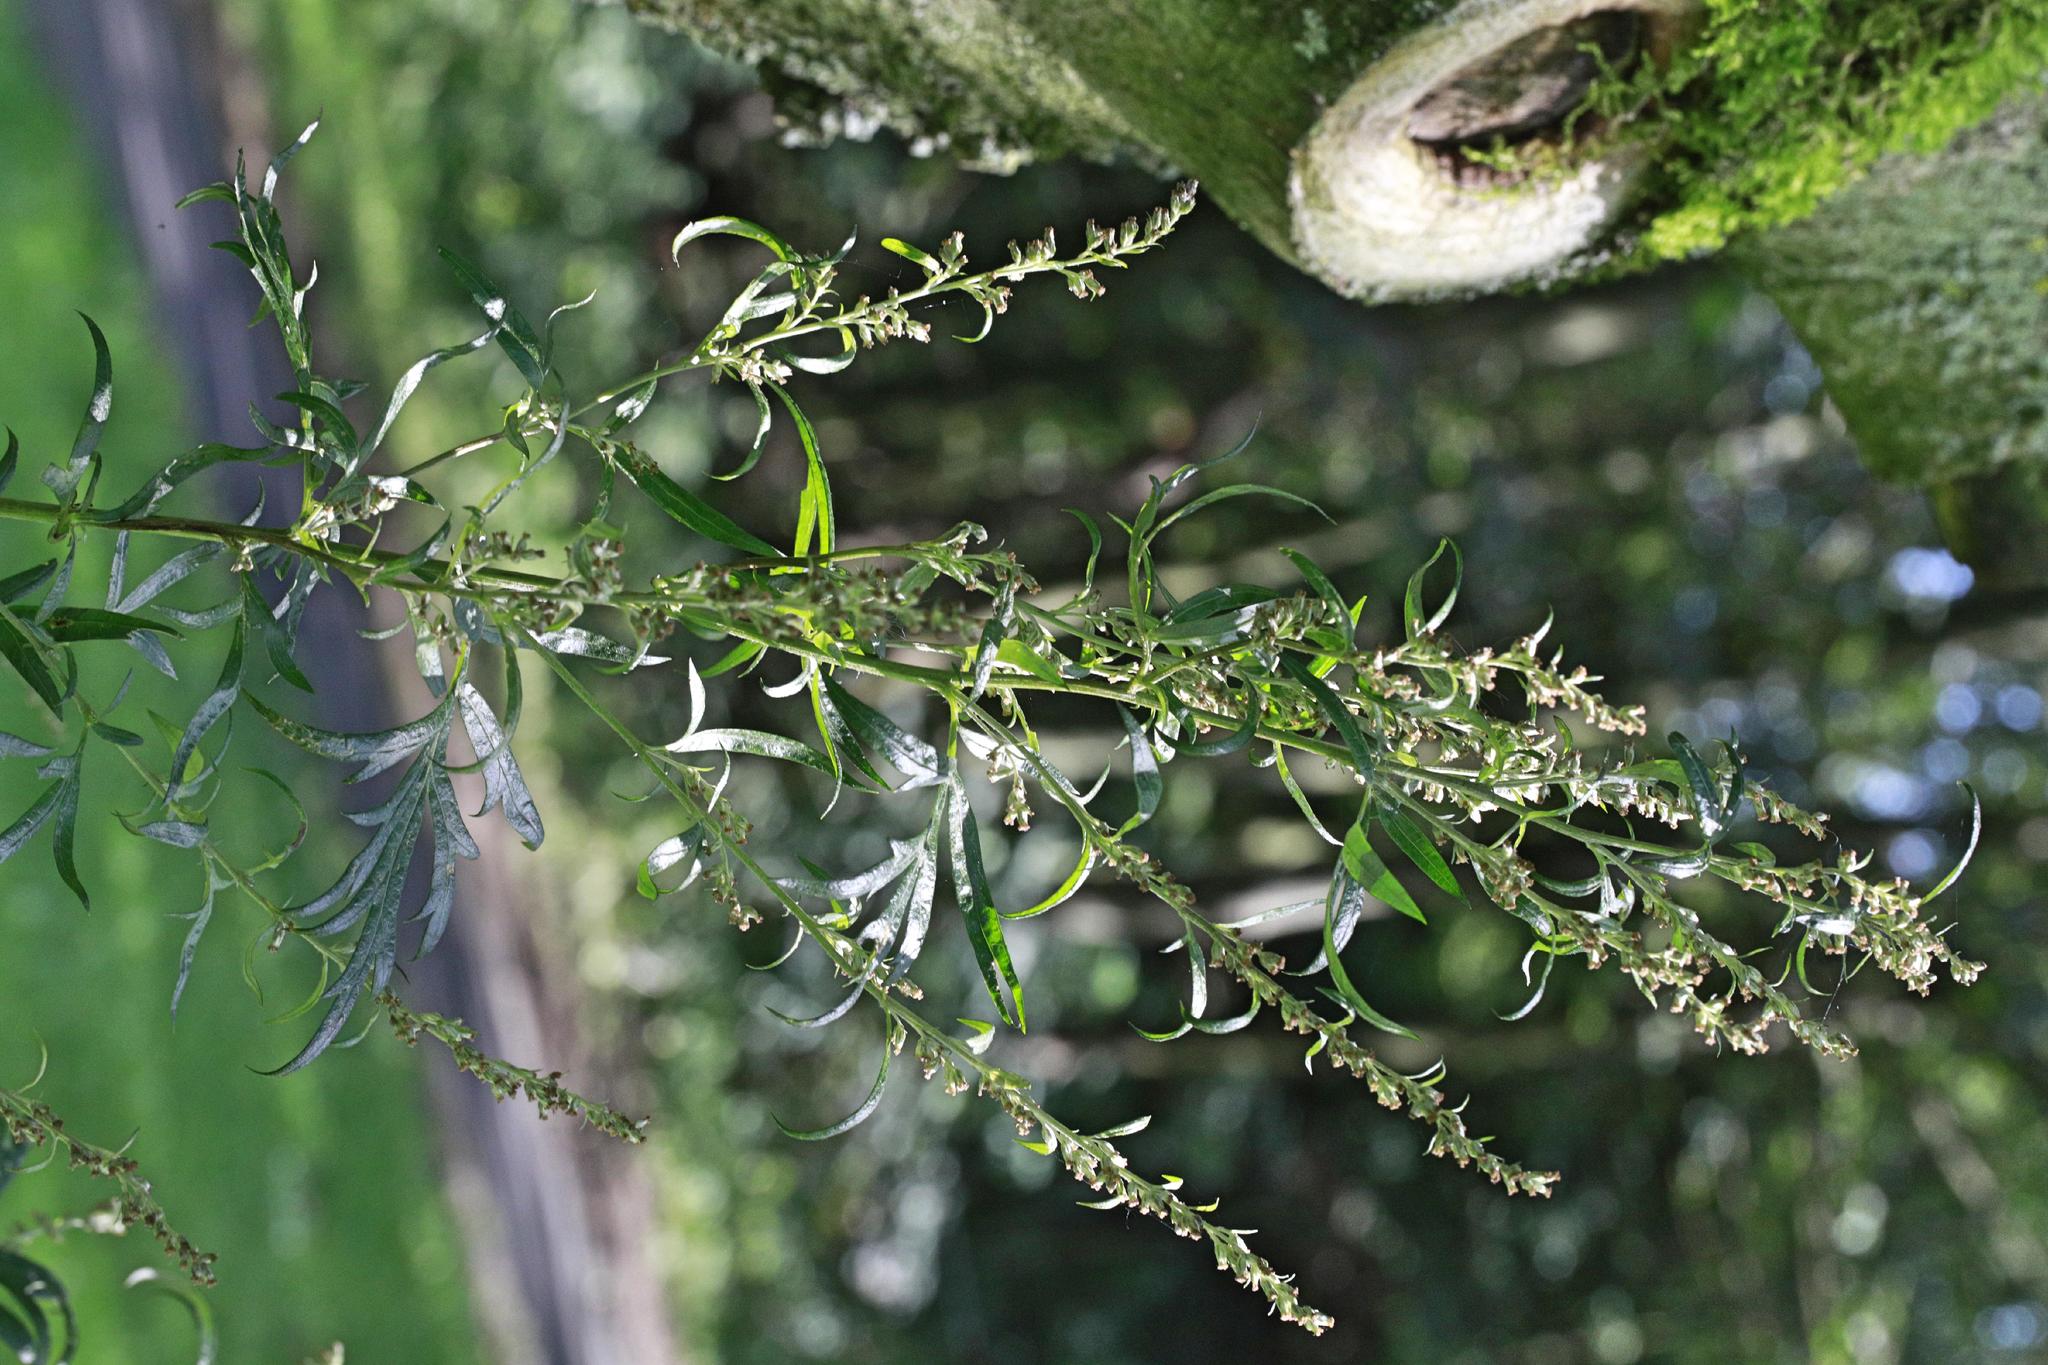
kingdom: Plantae
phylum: Tracheophyta
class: Magnoliopsida
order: Asterales
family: Asteraceae
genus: Artemisia
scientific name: Artemisia vulgaris
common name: Mugwort
